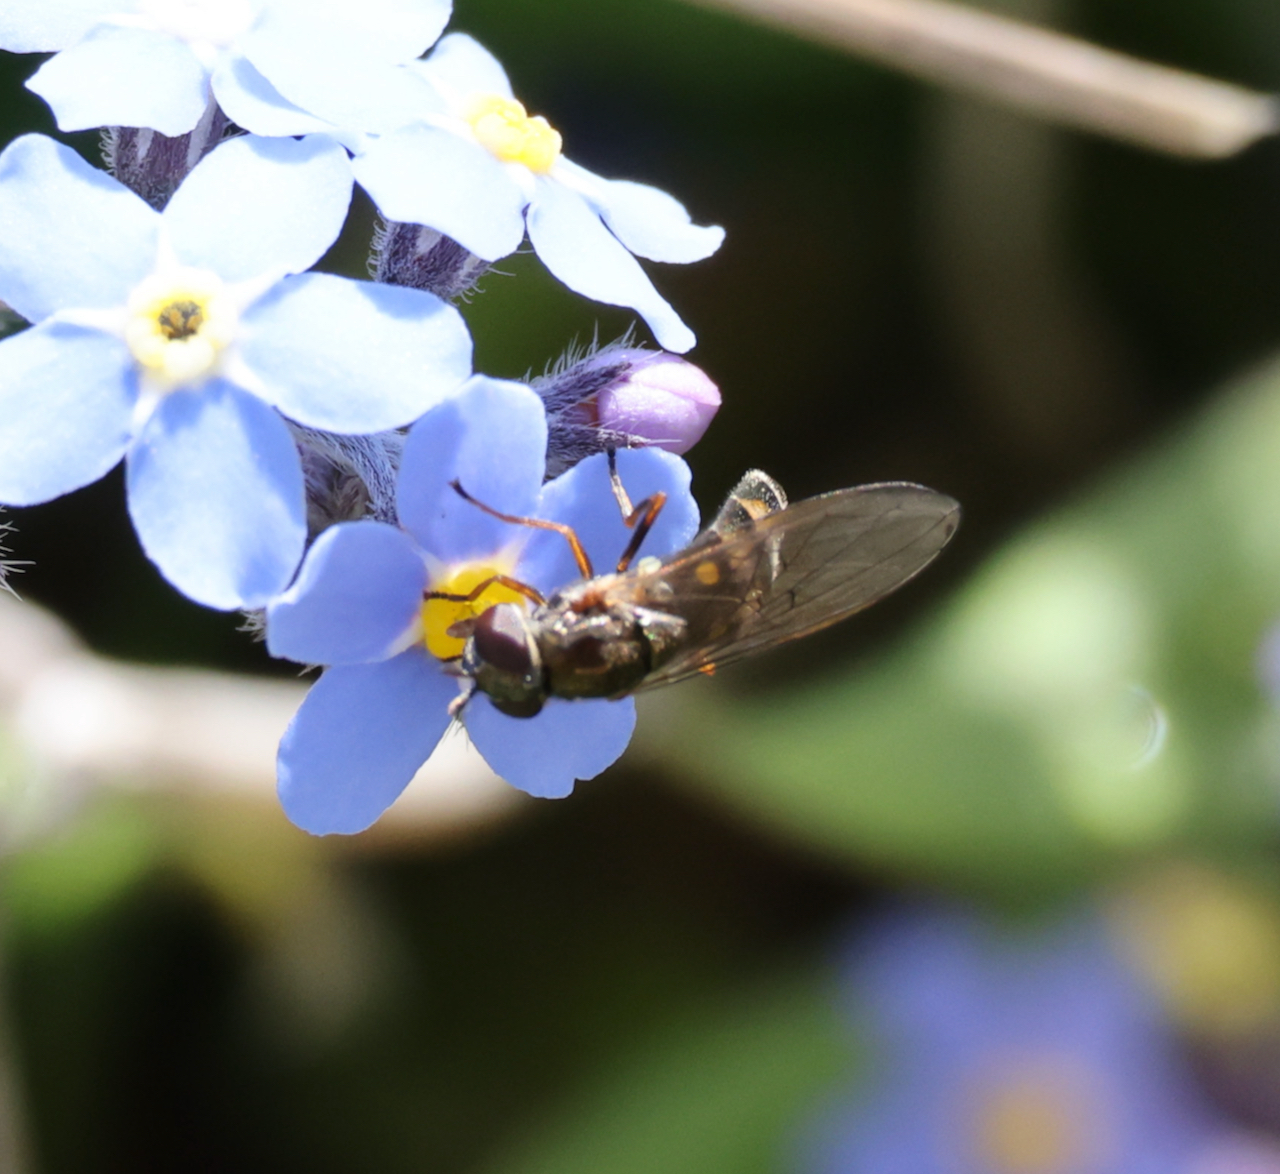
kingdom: Animalia
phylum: Arthropoda
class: Insecta
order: Diptera
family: Syrphidae
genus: Melanostoma
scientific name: Melanostoma scalare
